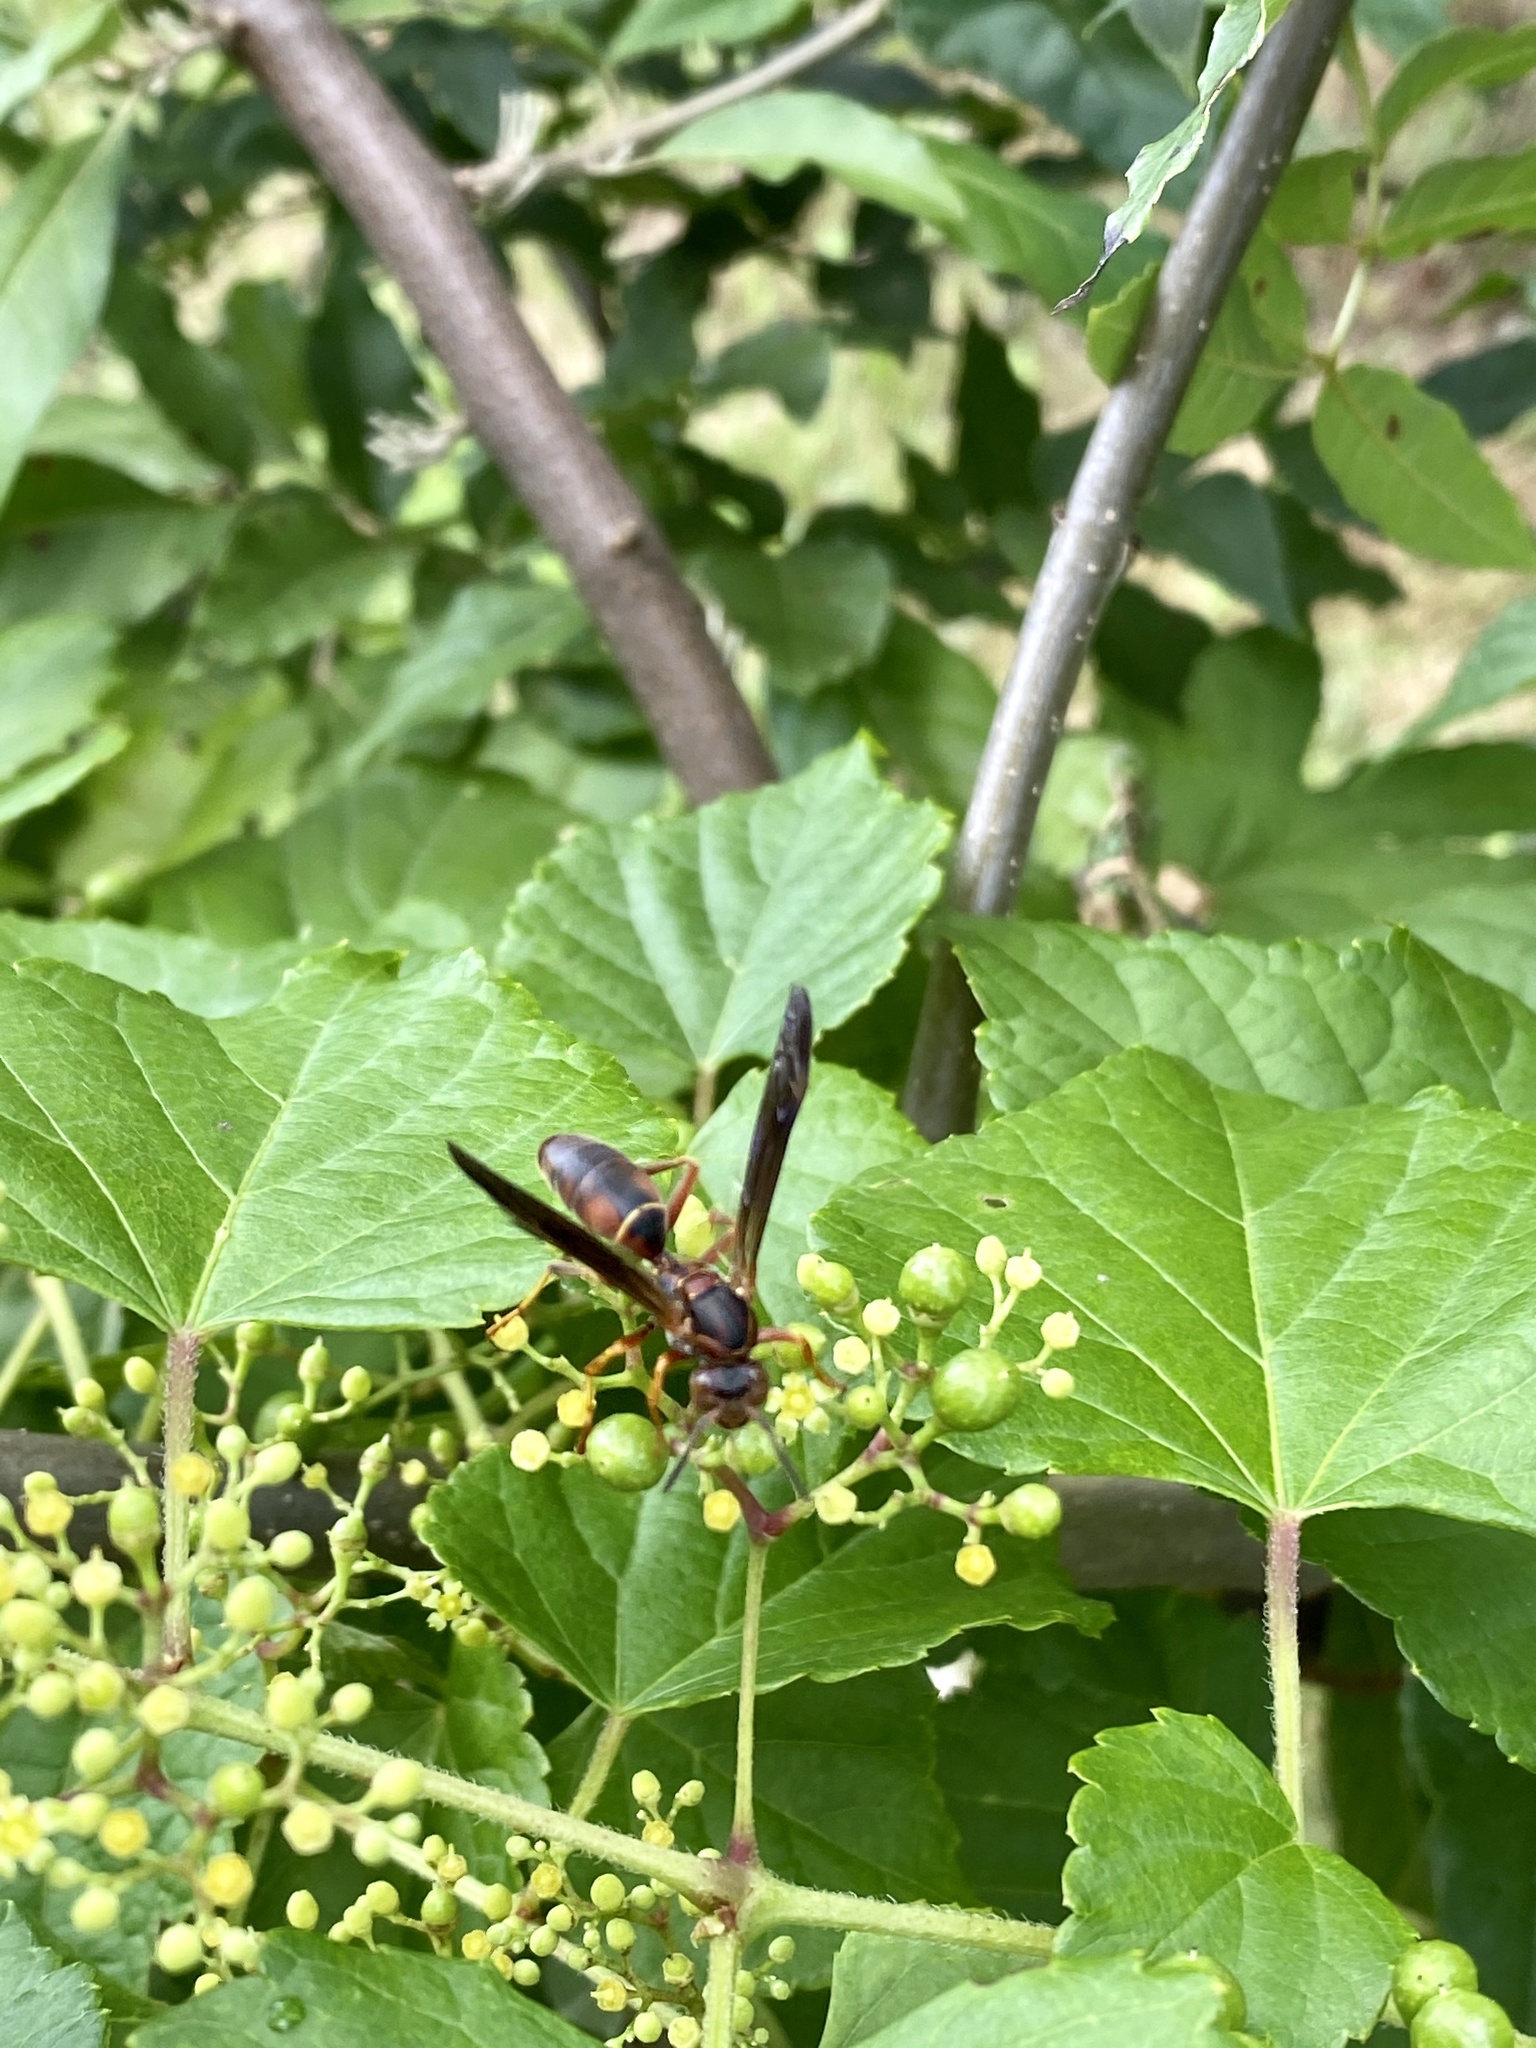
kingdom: Animalia
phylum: Arthropoda
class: Insecta
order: Hymenoptera
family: Eumenidae
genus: Polistes
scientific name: Polistes fuscatus
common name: Dark paper wasp
